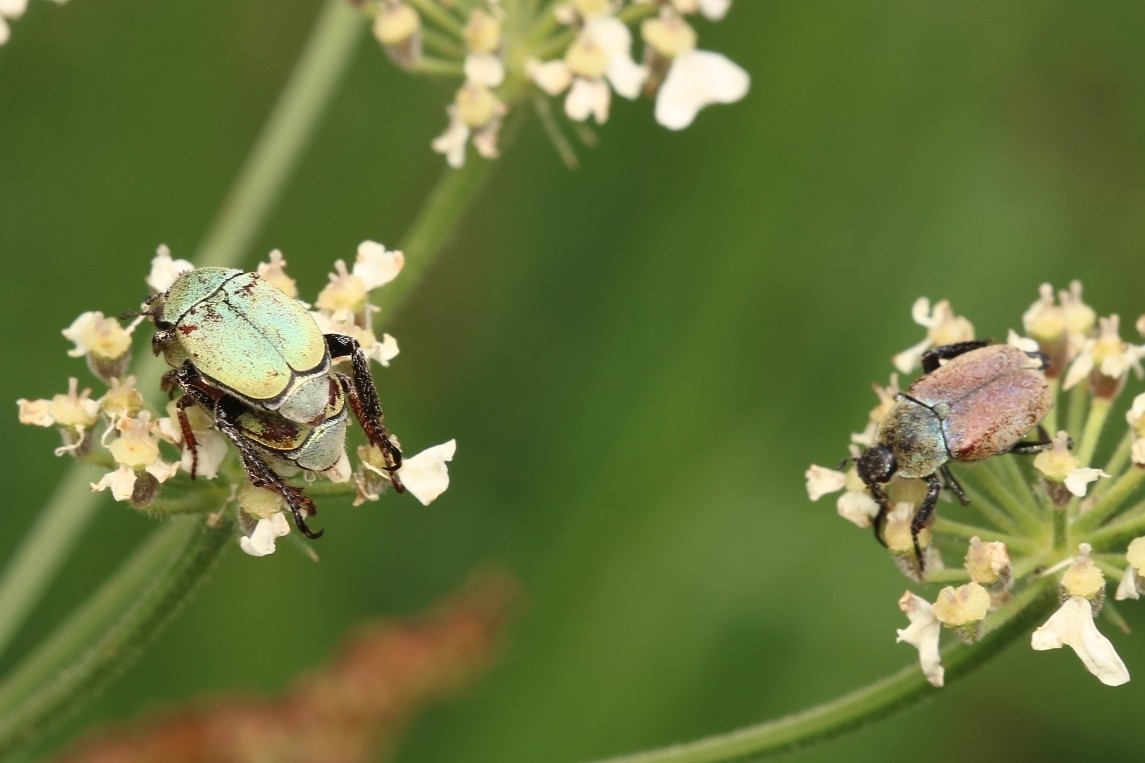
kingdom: Animalia
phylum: Arthropoda
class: Insecta
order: Coleoptera
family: Scarabaeidae
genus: Hoplia
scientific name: Hoplia argentea
